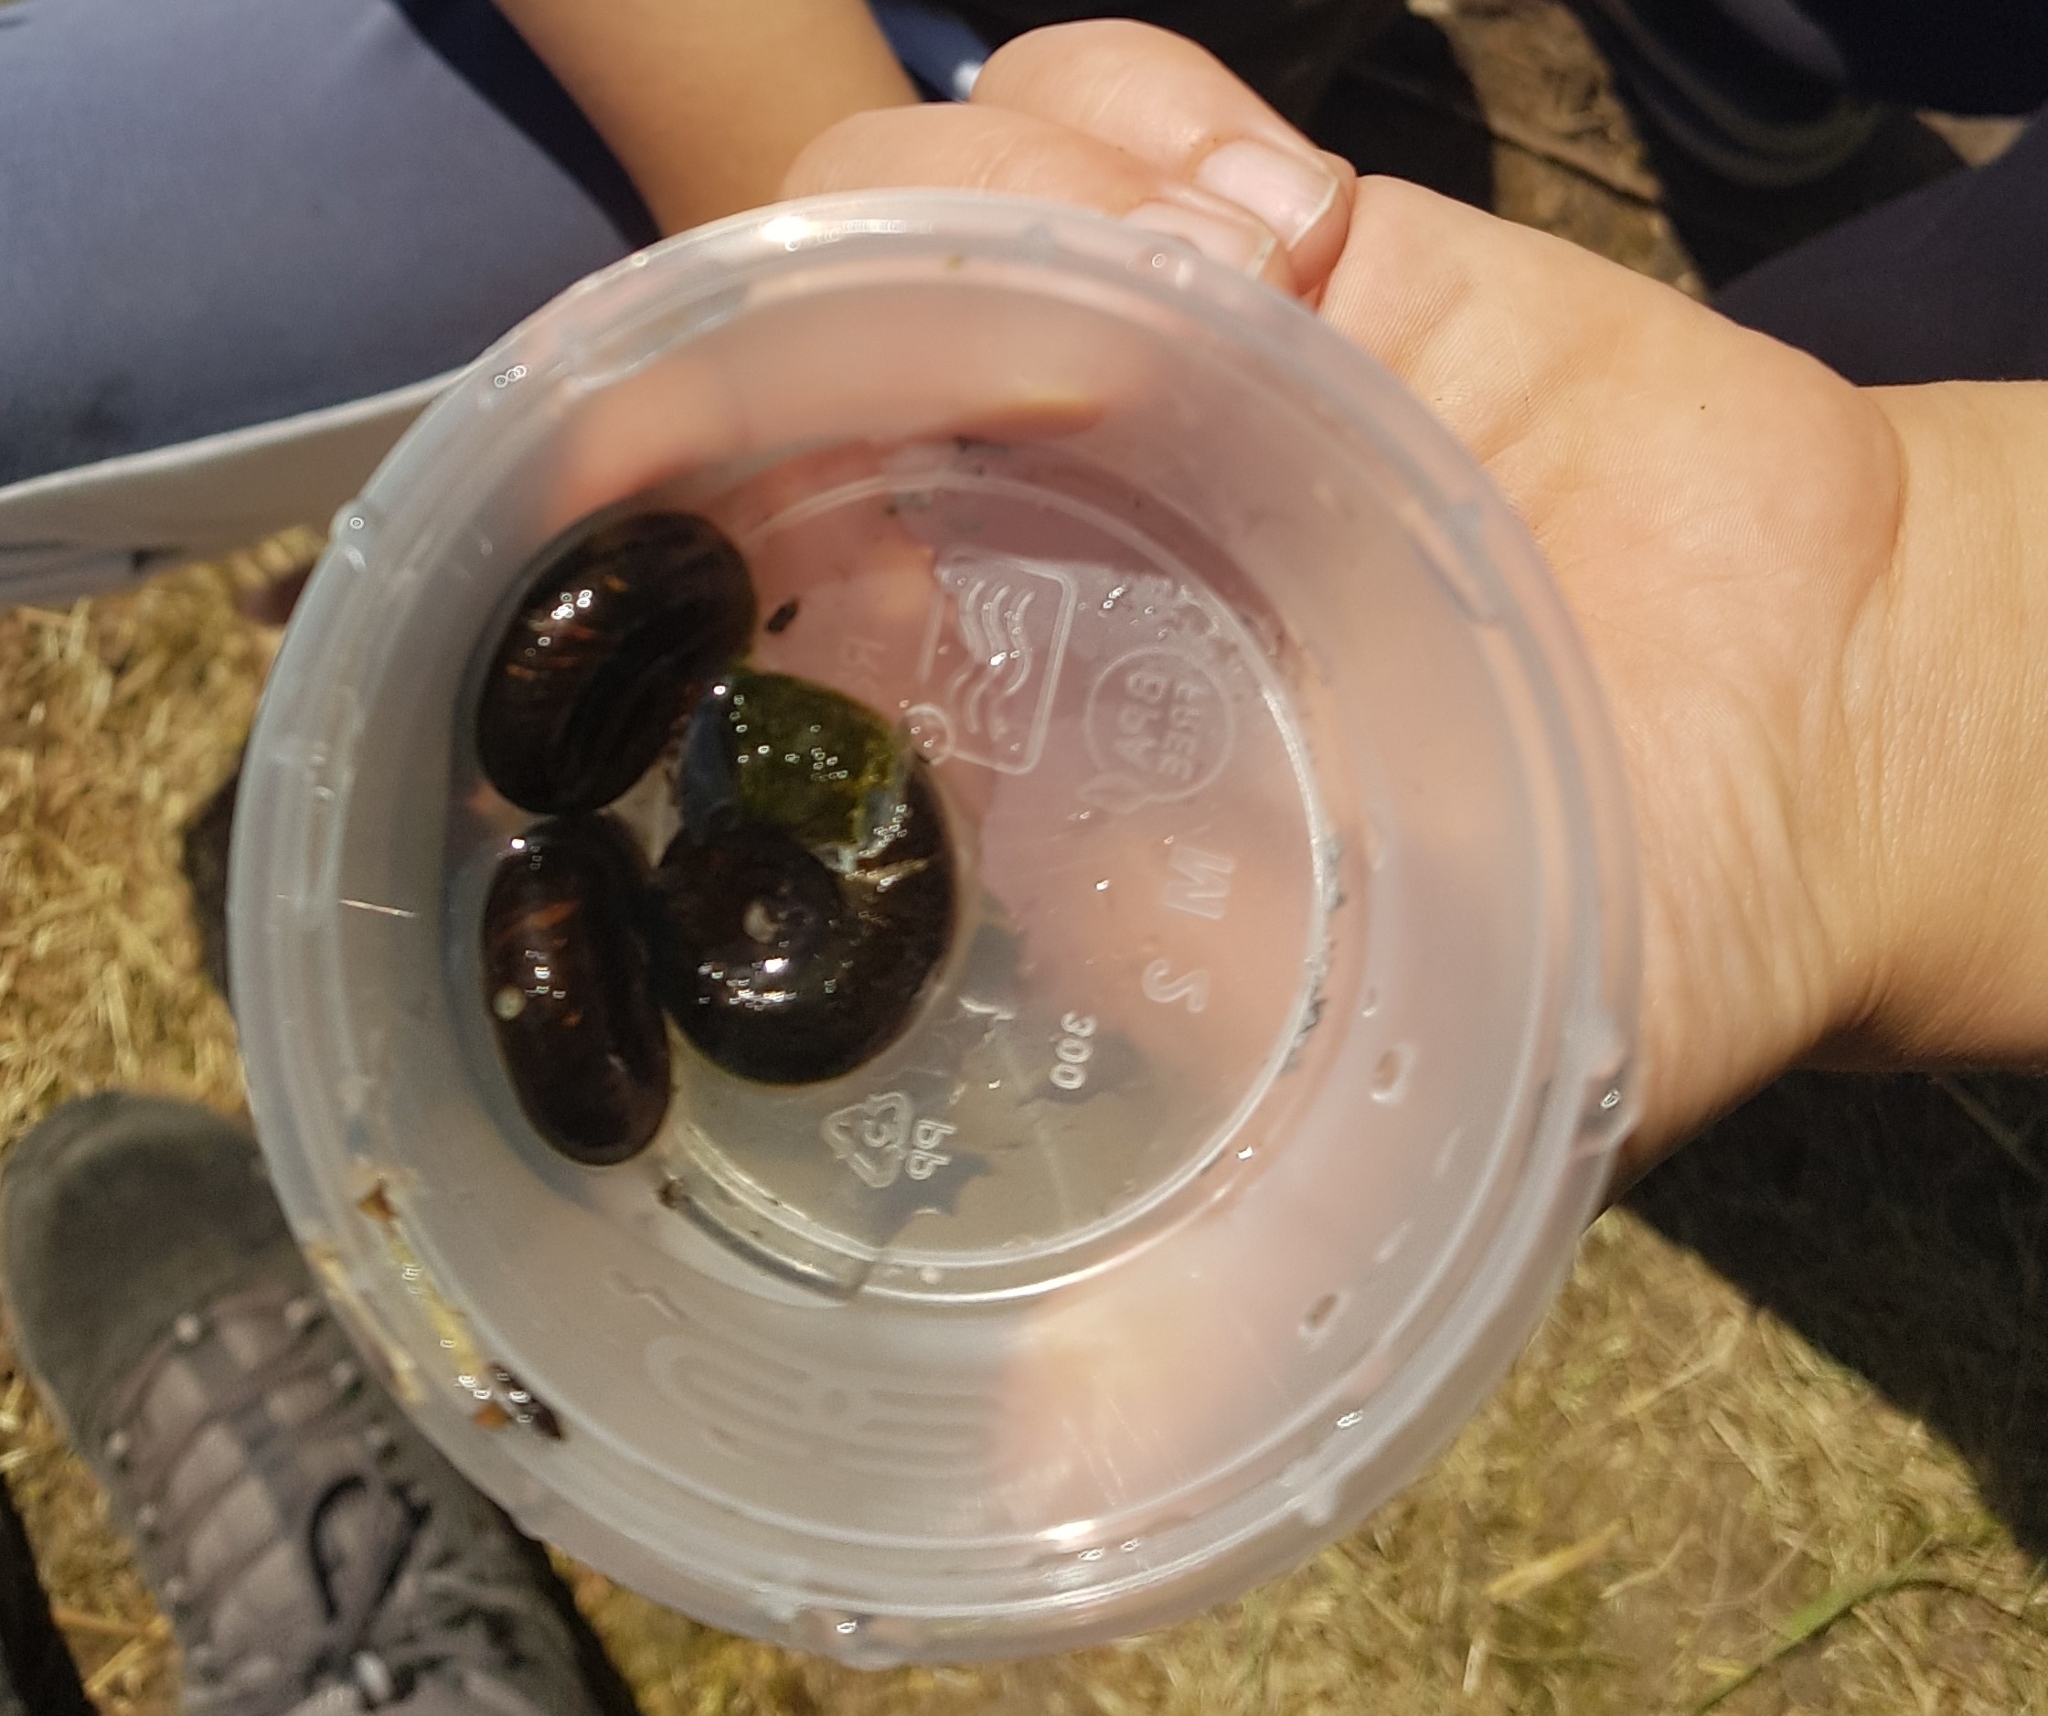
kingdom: Animalia
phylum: Mollusca
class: Gastropoda
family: Planorbidae
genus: Planorbarius
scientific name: Planorbarius corneus
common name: Great ramshorn
